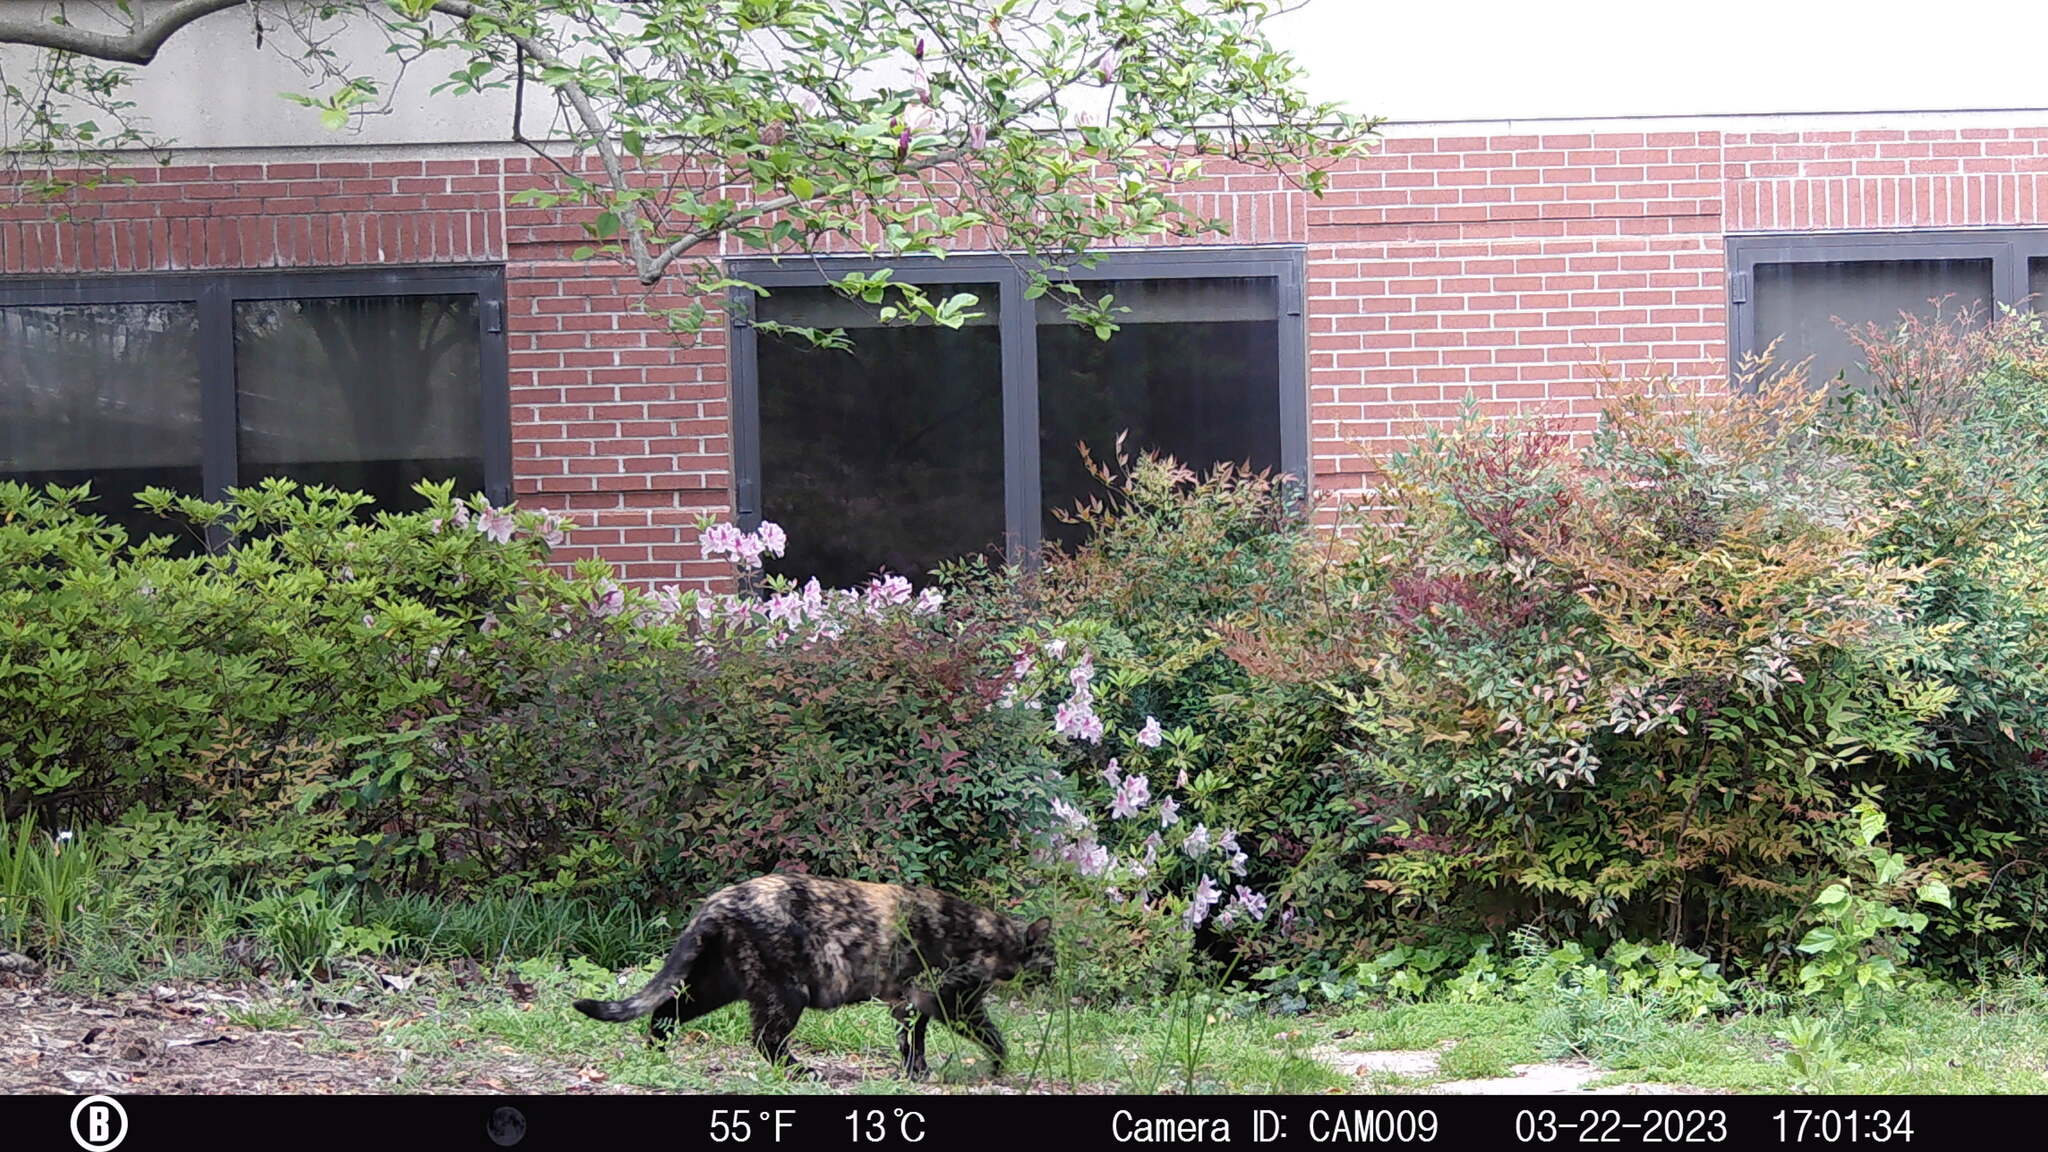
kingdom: Animalia
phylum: Chordata
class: Mammalia
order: Carnivora
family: Felidae
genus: Felis
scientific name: Felis catus
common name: Domestic cat
